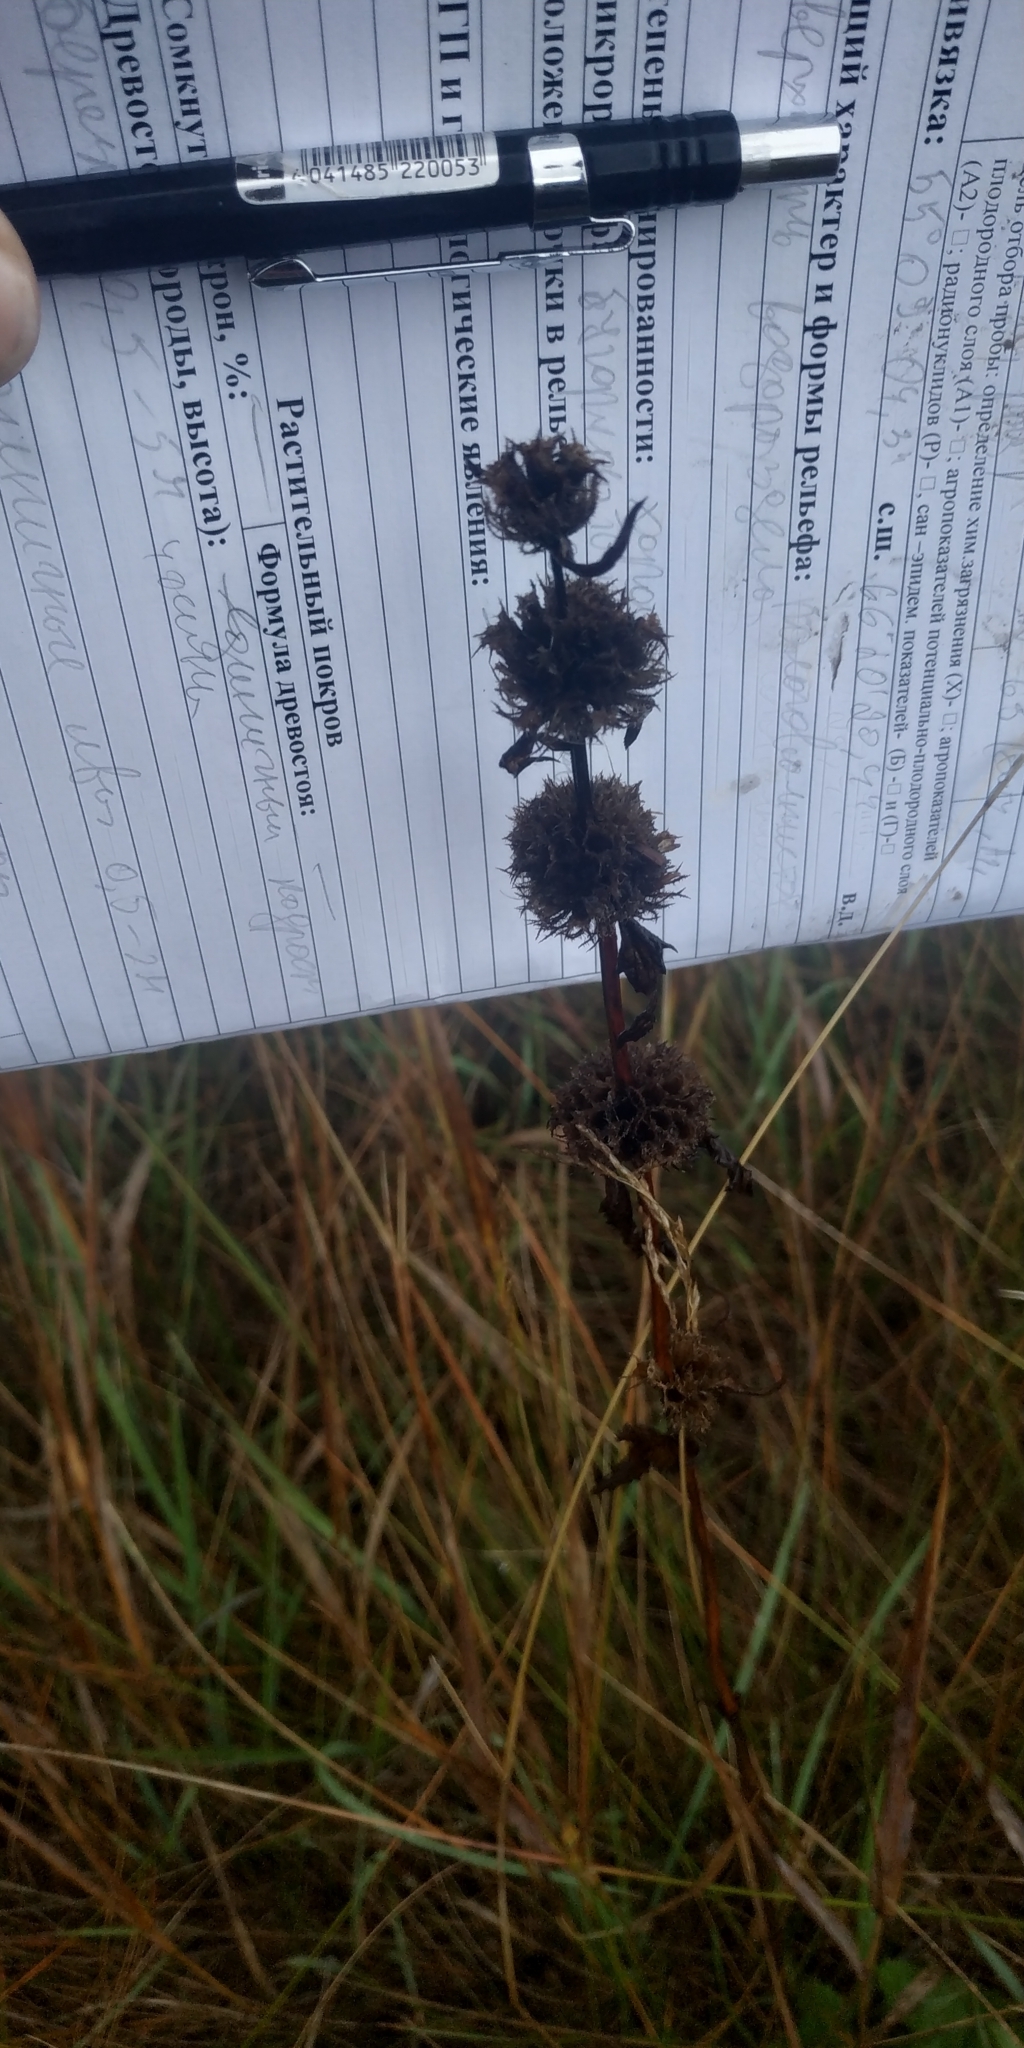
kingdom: Plantae
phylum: Tracheophyta
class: Magnoliopsida
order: Lamiales
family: Lamiaceae
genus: Phlomoides
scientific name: Phlomoides tuberosa
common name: Tuberous jerusalem sage
